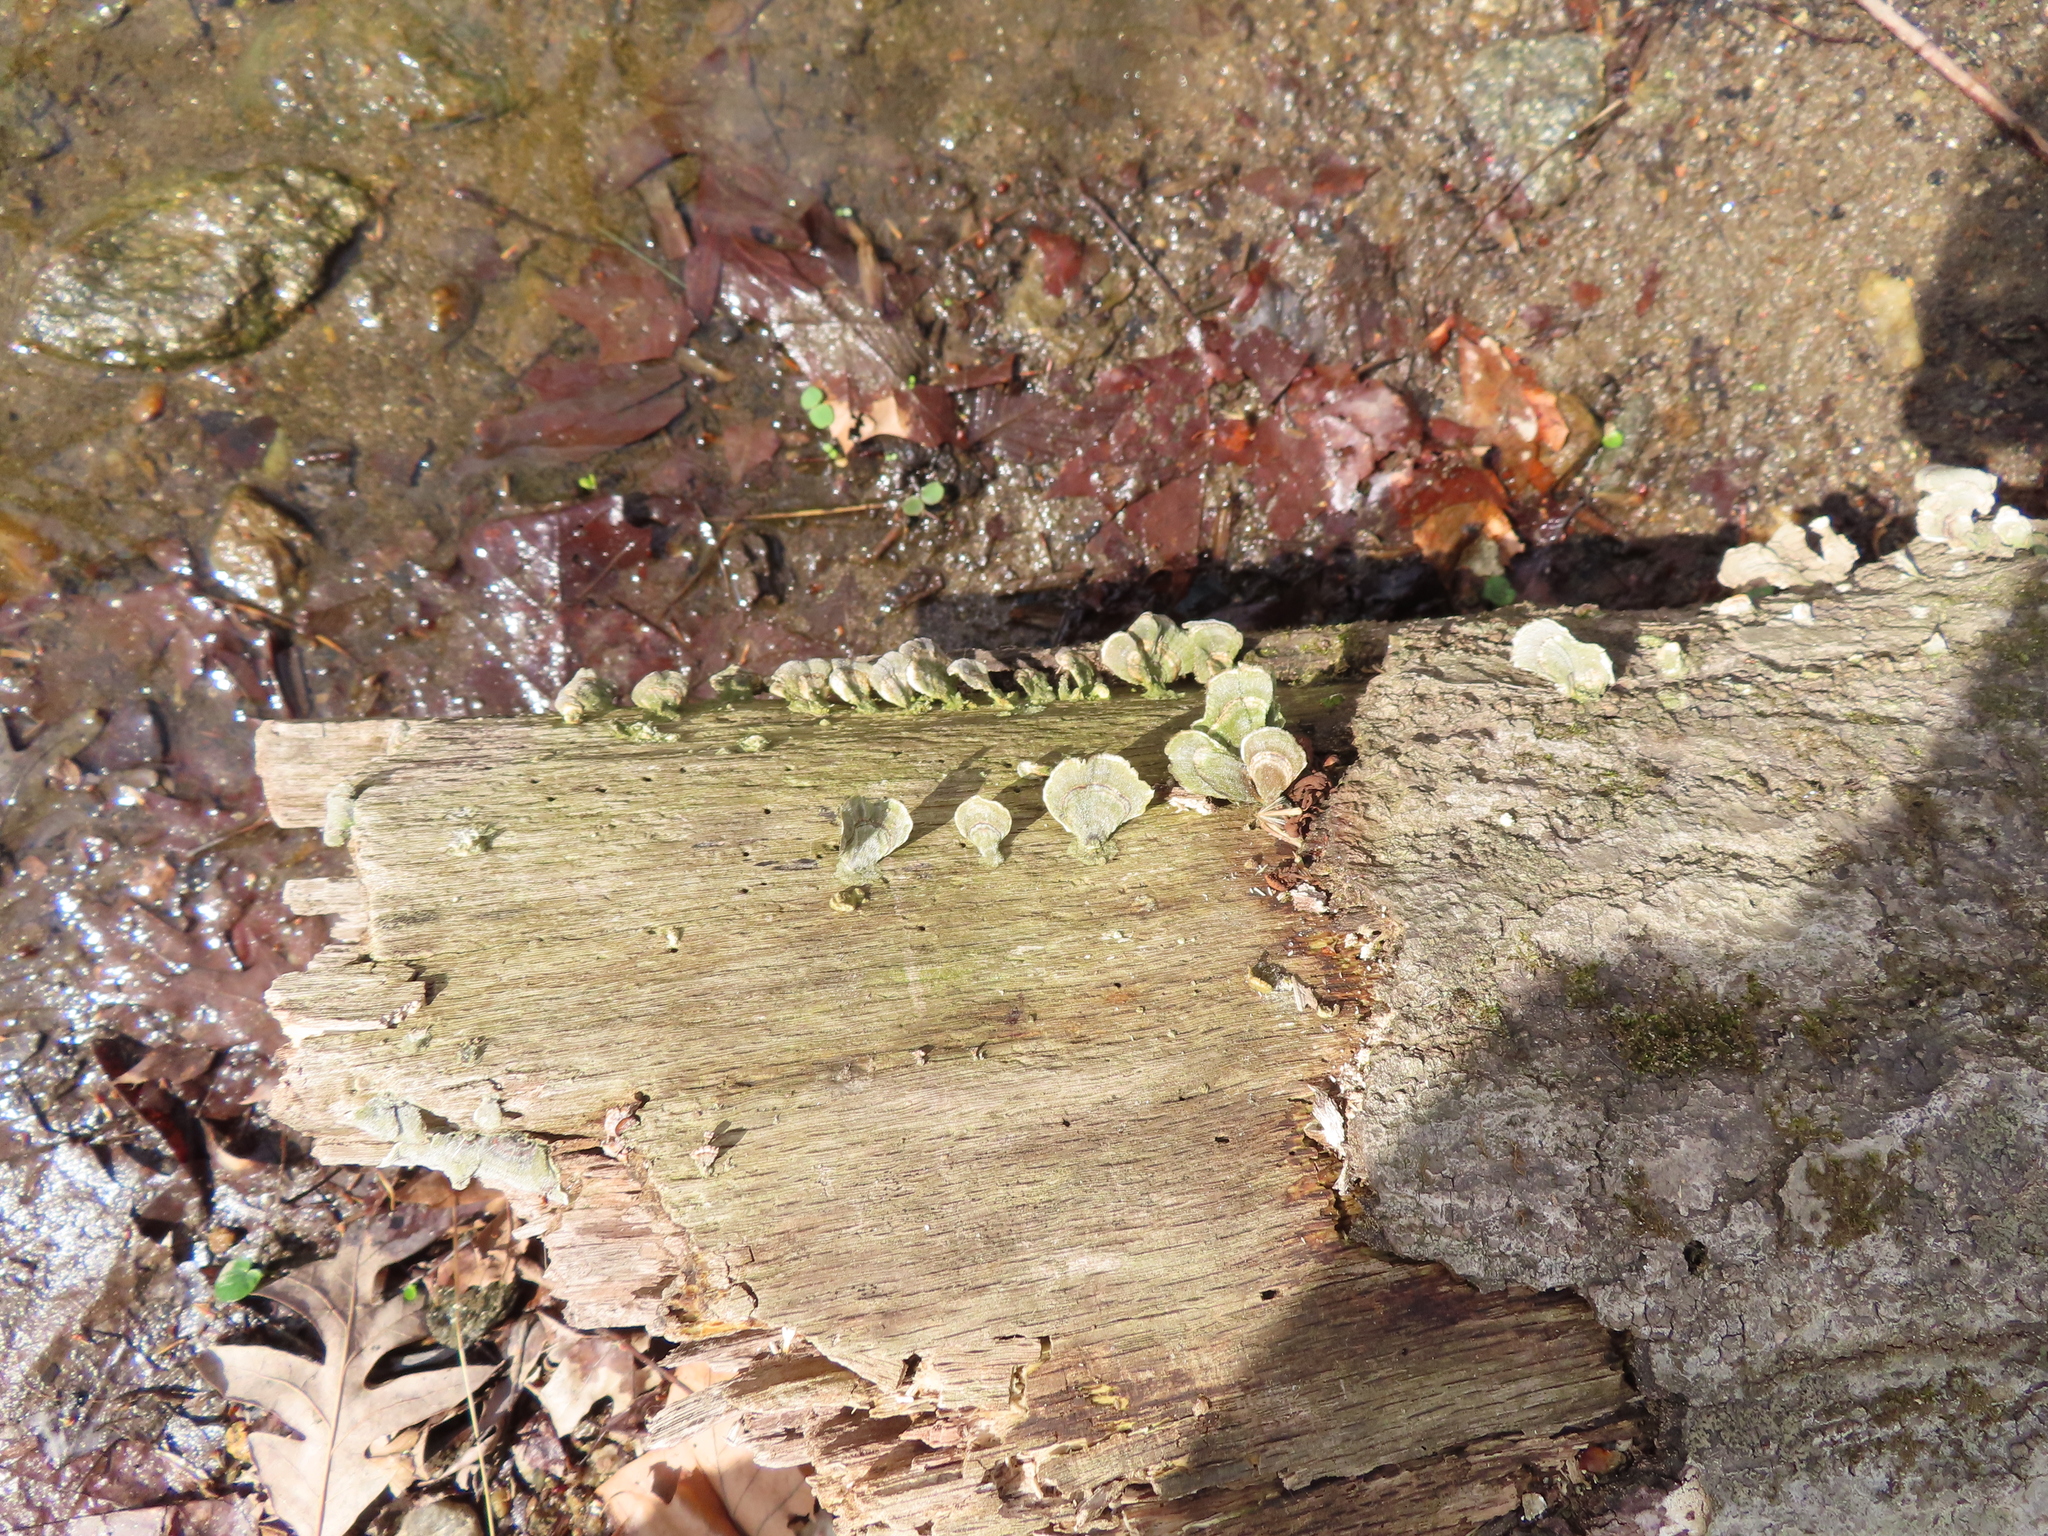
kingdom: Fungi
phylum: Basidiomycota
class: Agaricomycetes
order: Russulales
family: Stereaceae
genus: Stereum
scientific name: Stereum ostrea
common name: False turkeytail
